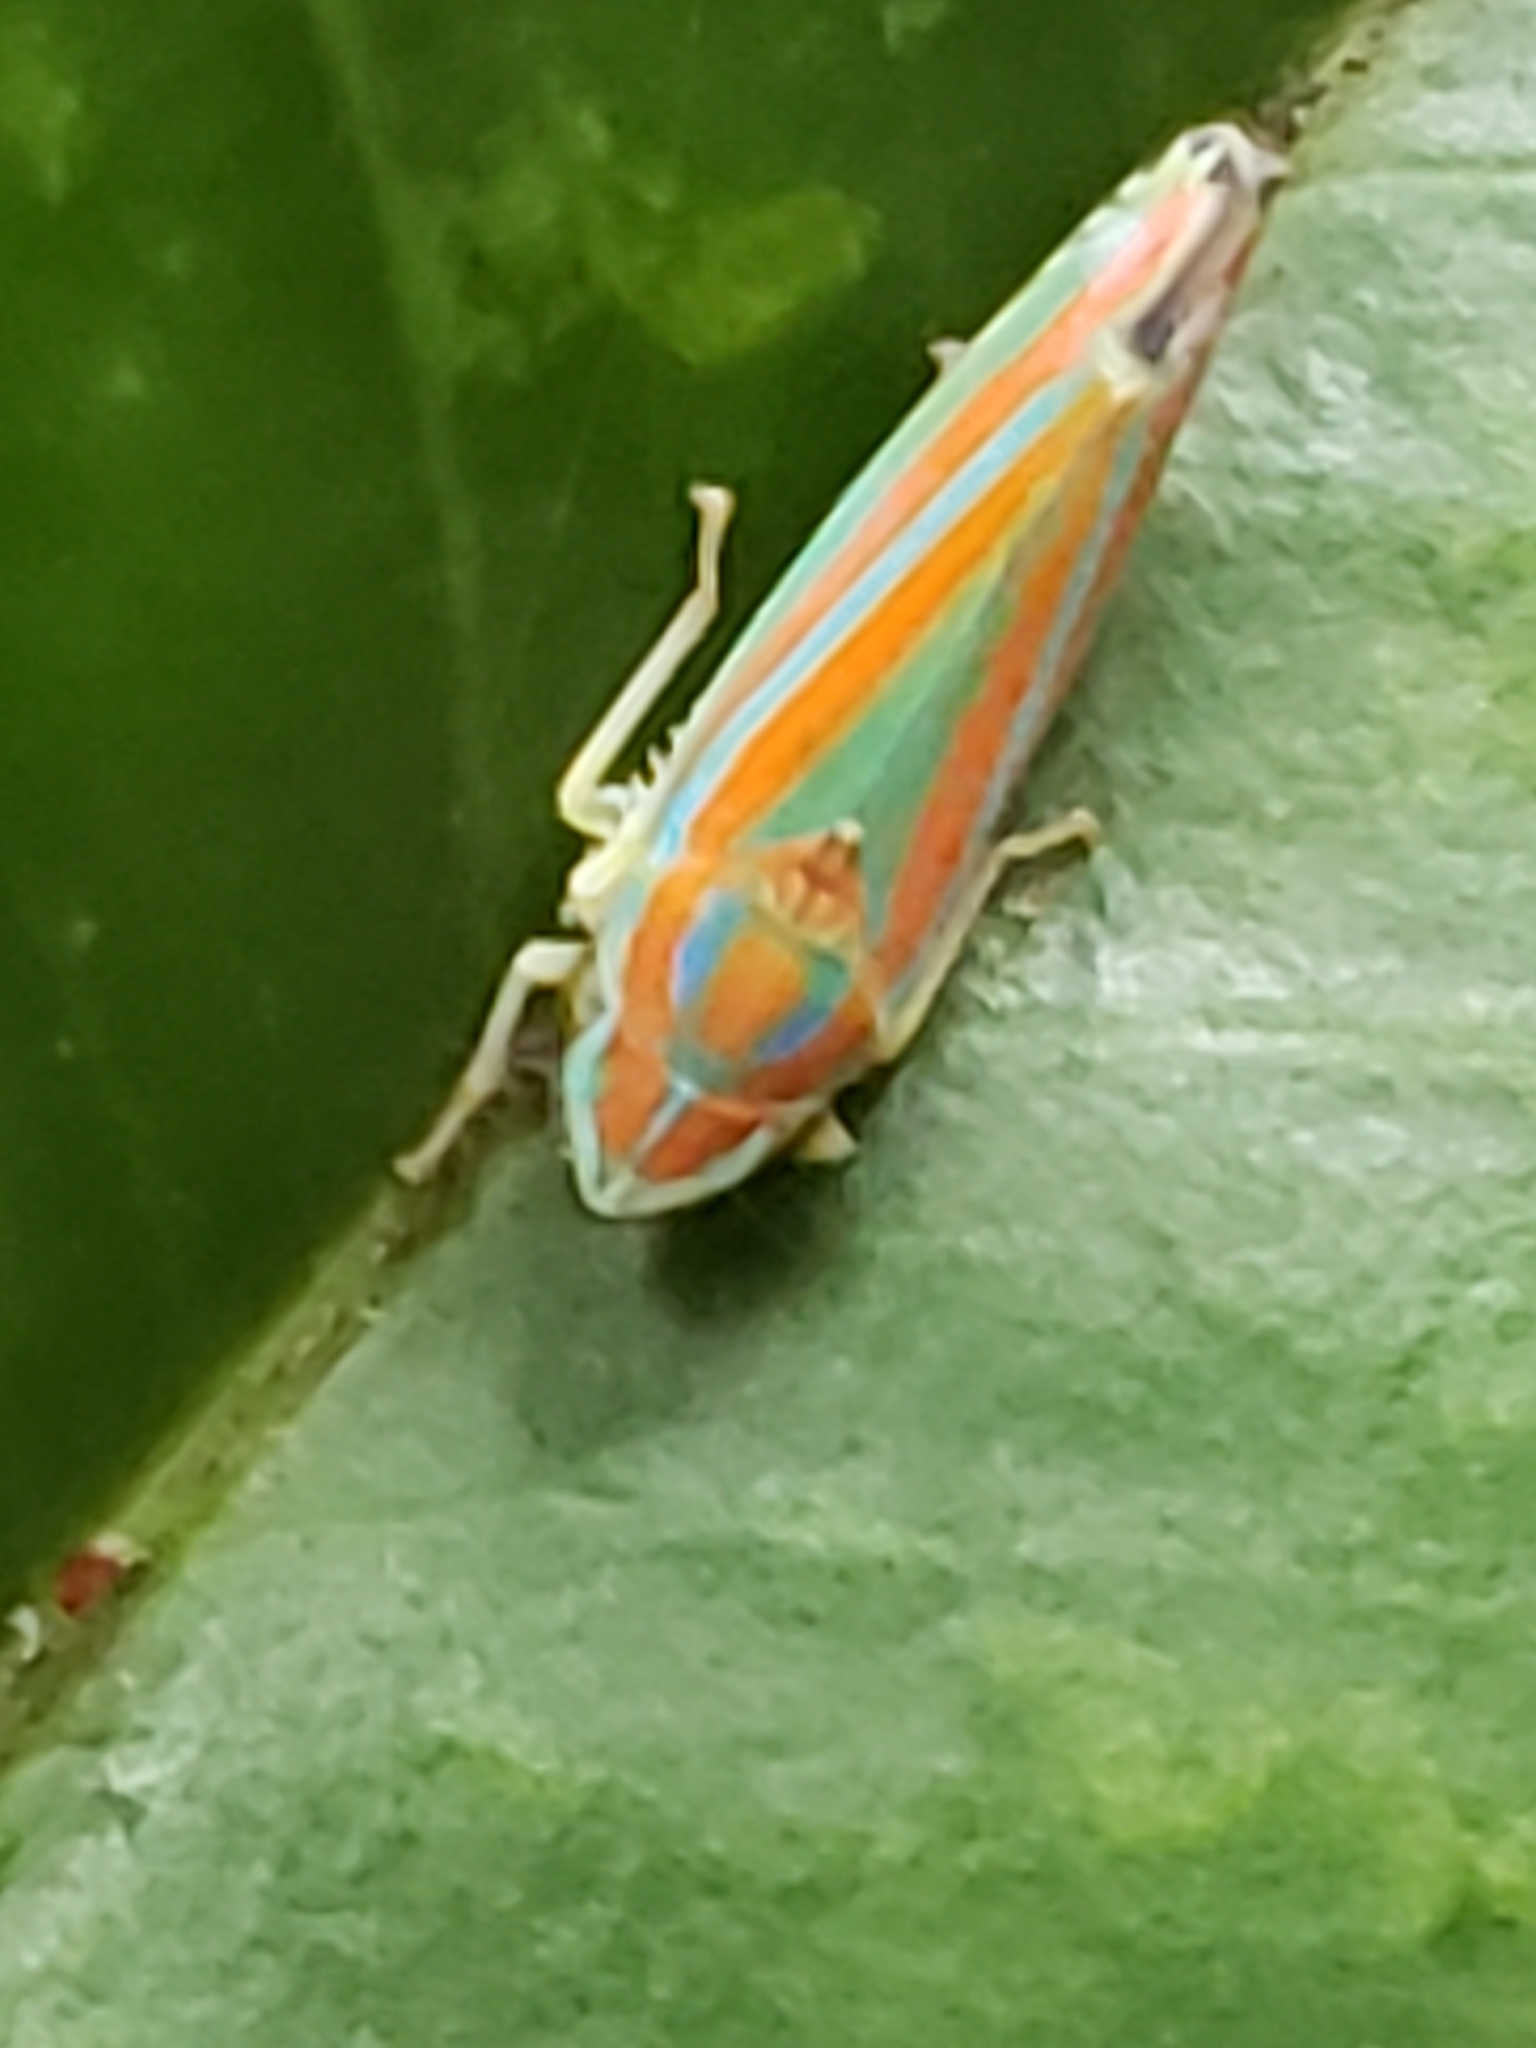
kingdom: Animalia
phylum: Arthropoda
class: Insecta
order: Hemiptera
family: Cicadellidae
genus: Graphocephala
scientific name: Graphocephala versuta
